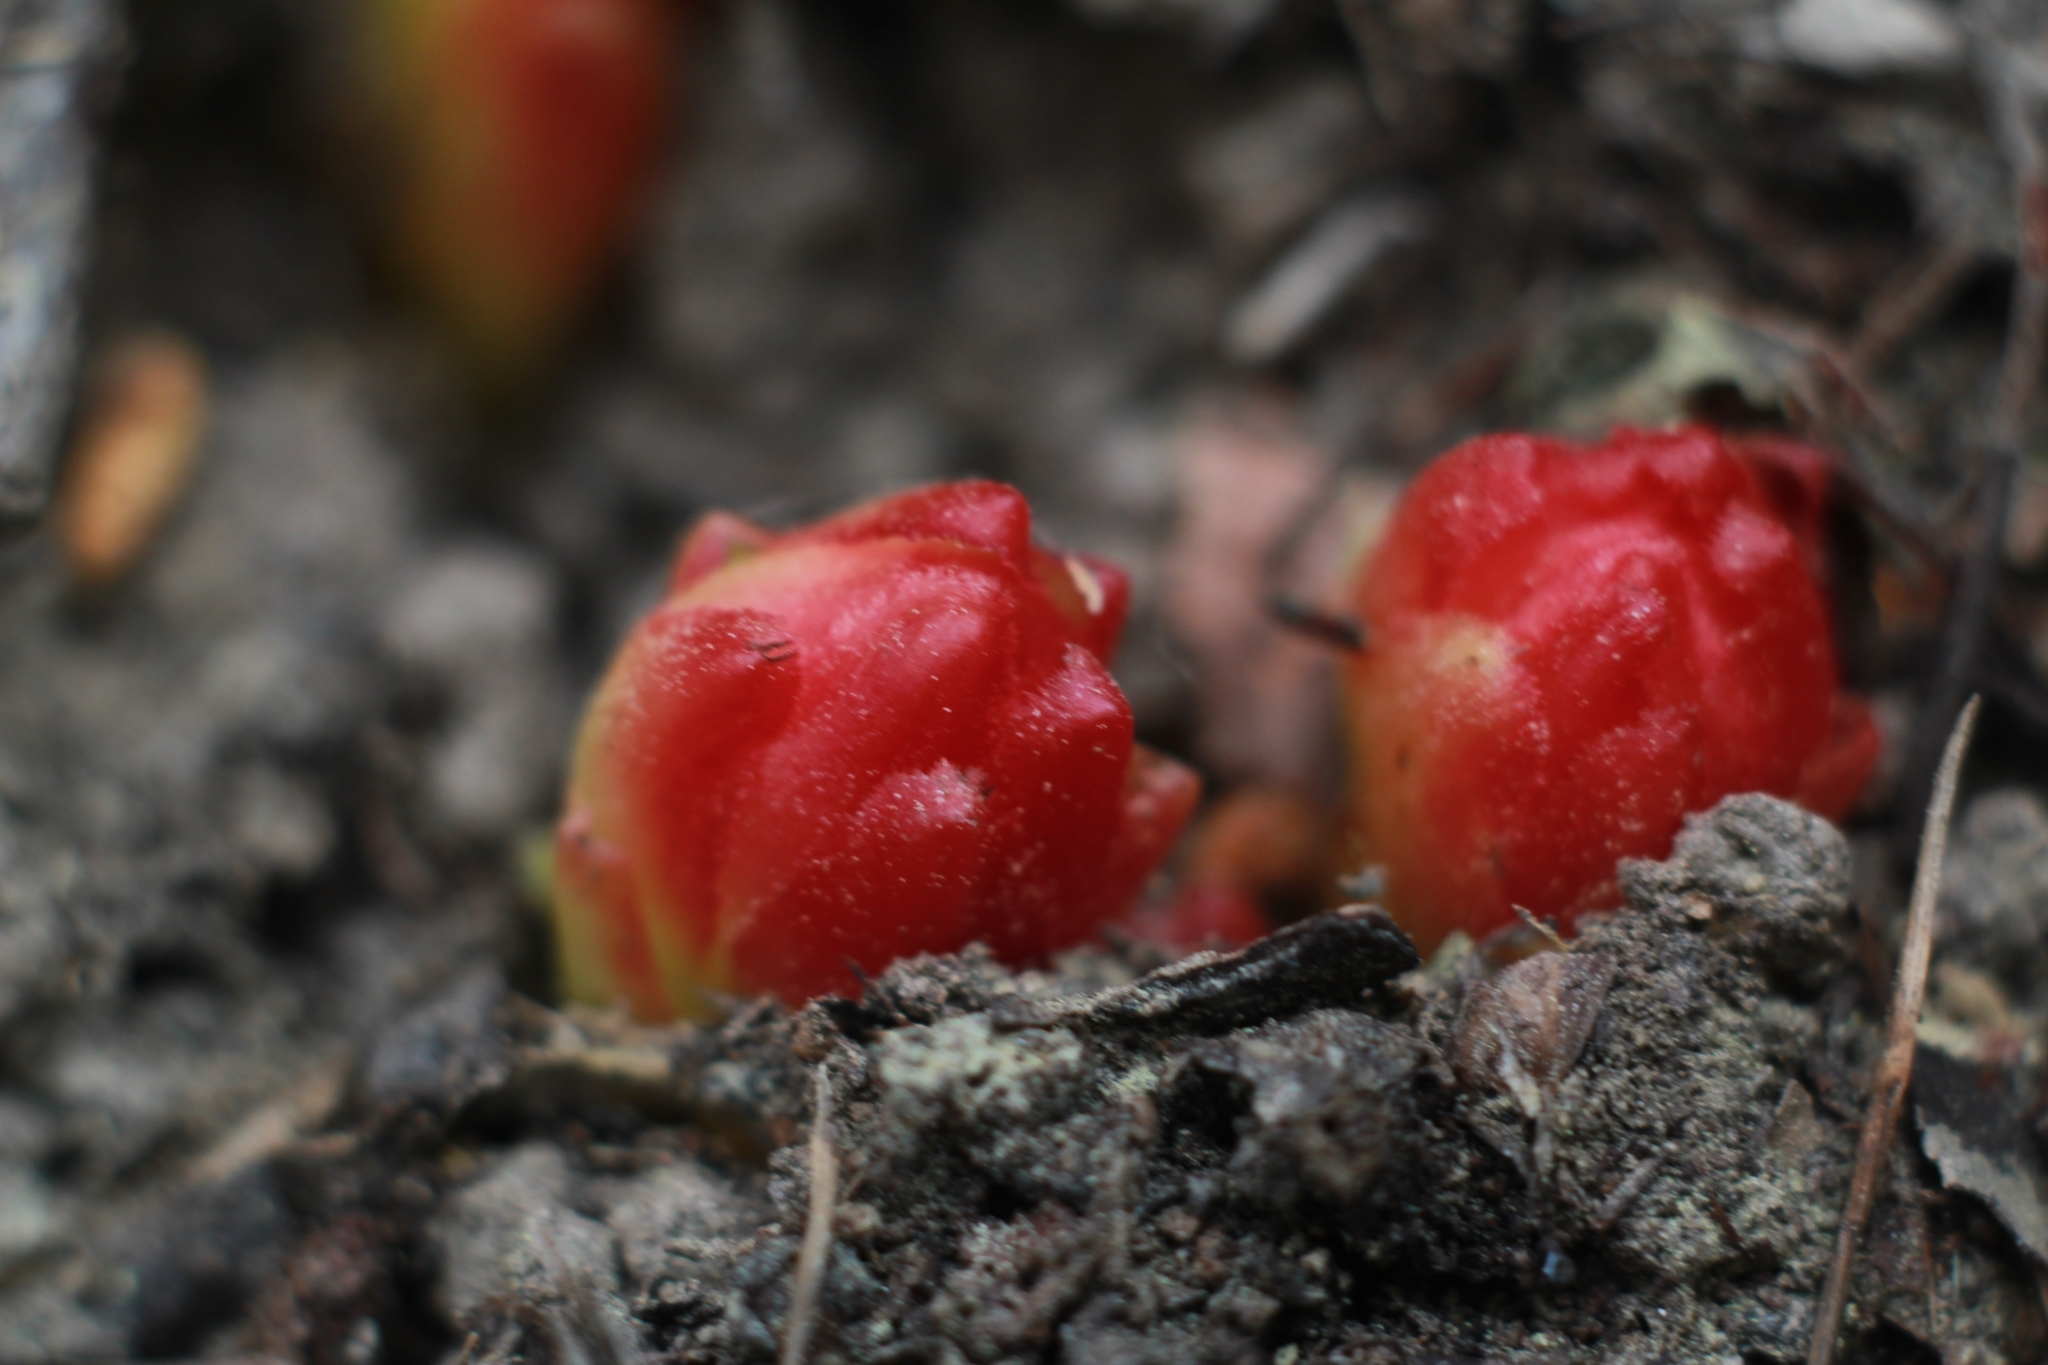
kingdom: Plantae
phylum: Tracheophyta
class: Magnoliopsida
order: Malvales
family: Cytinaceae
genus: Cytinus
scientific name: Cytinus hypocistis
